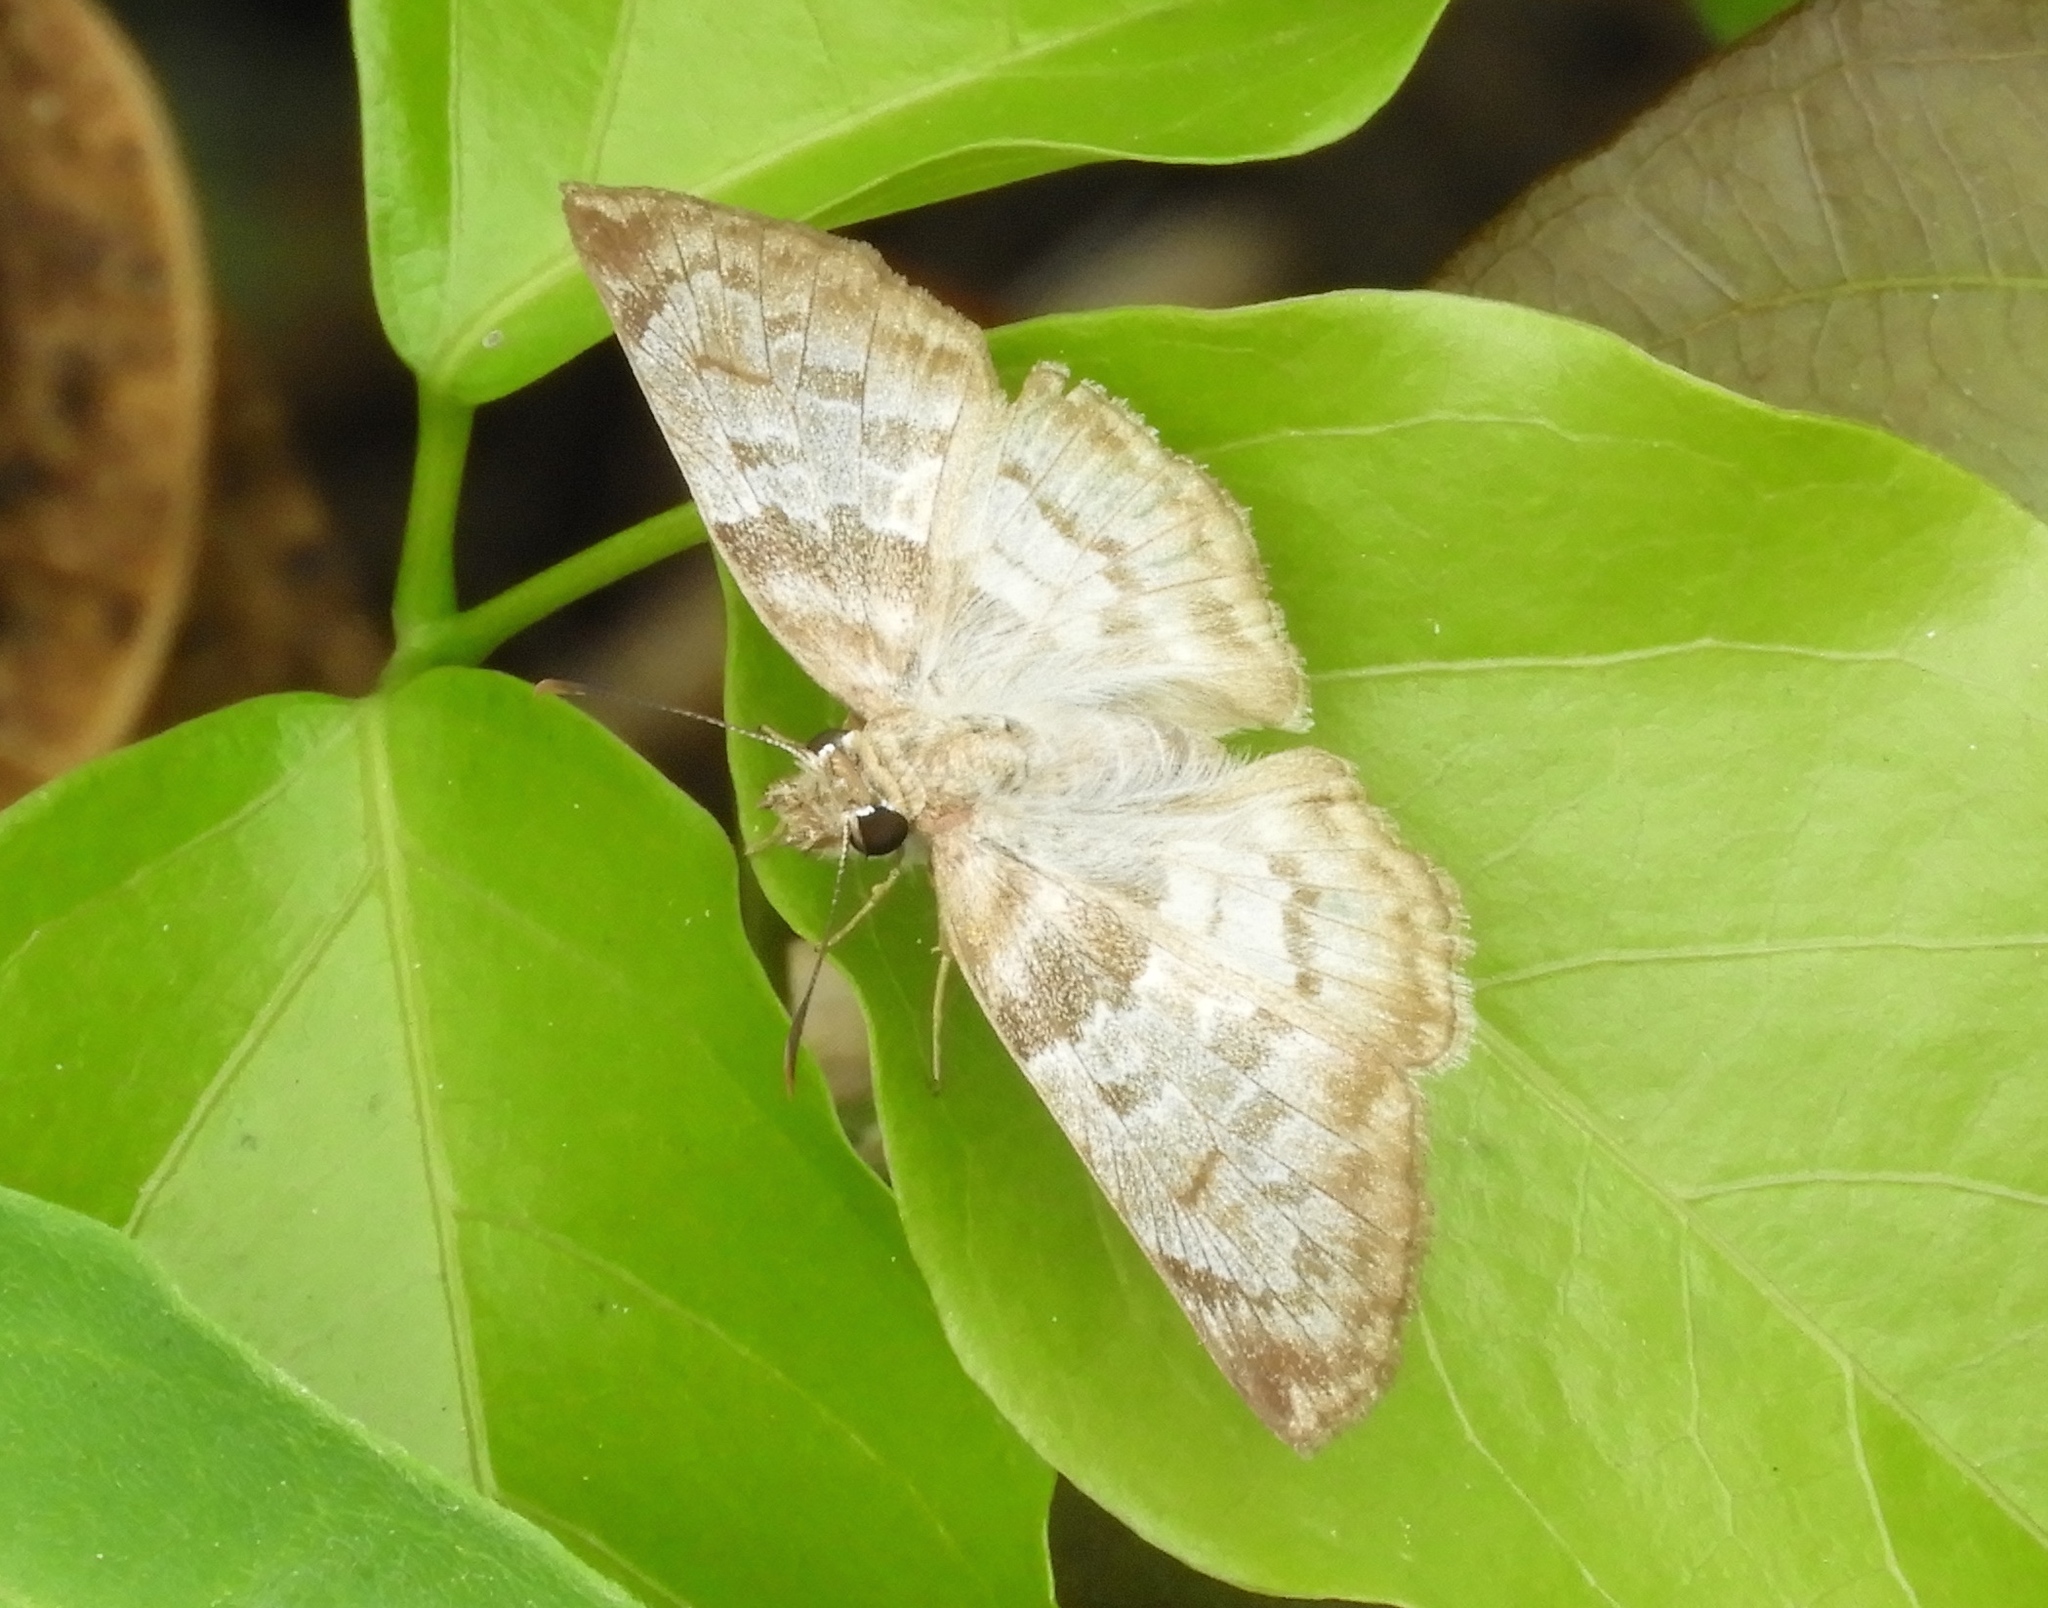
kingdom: Animalia
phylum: Arthropoda
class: Insecta
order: Lepidoptera
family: Hesperiidae
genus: Mylon
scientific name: Mylon pelopidas
